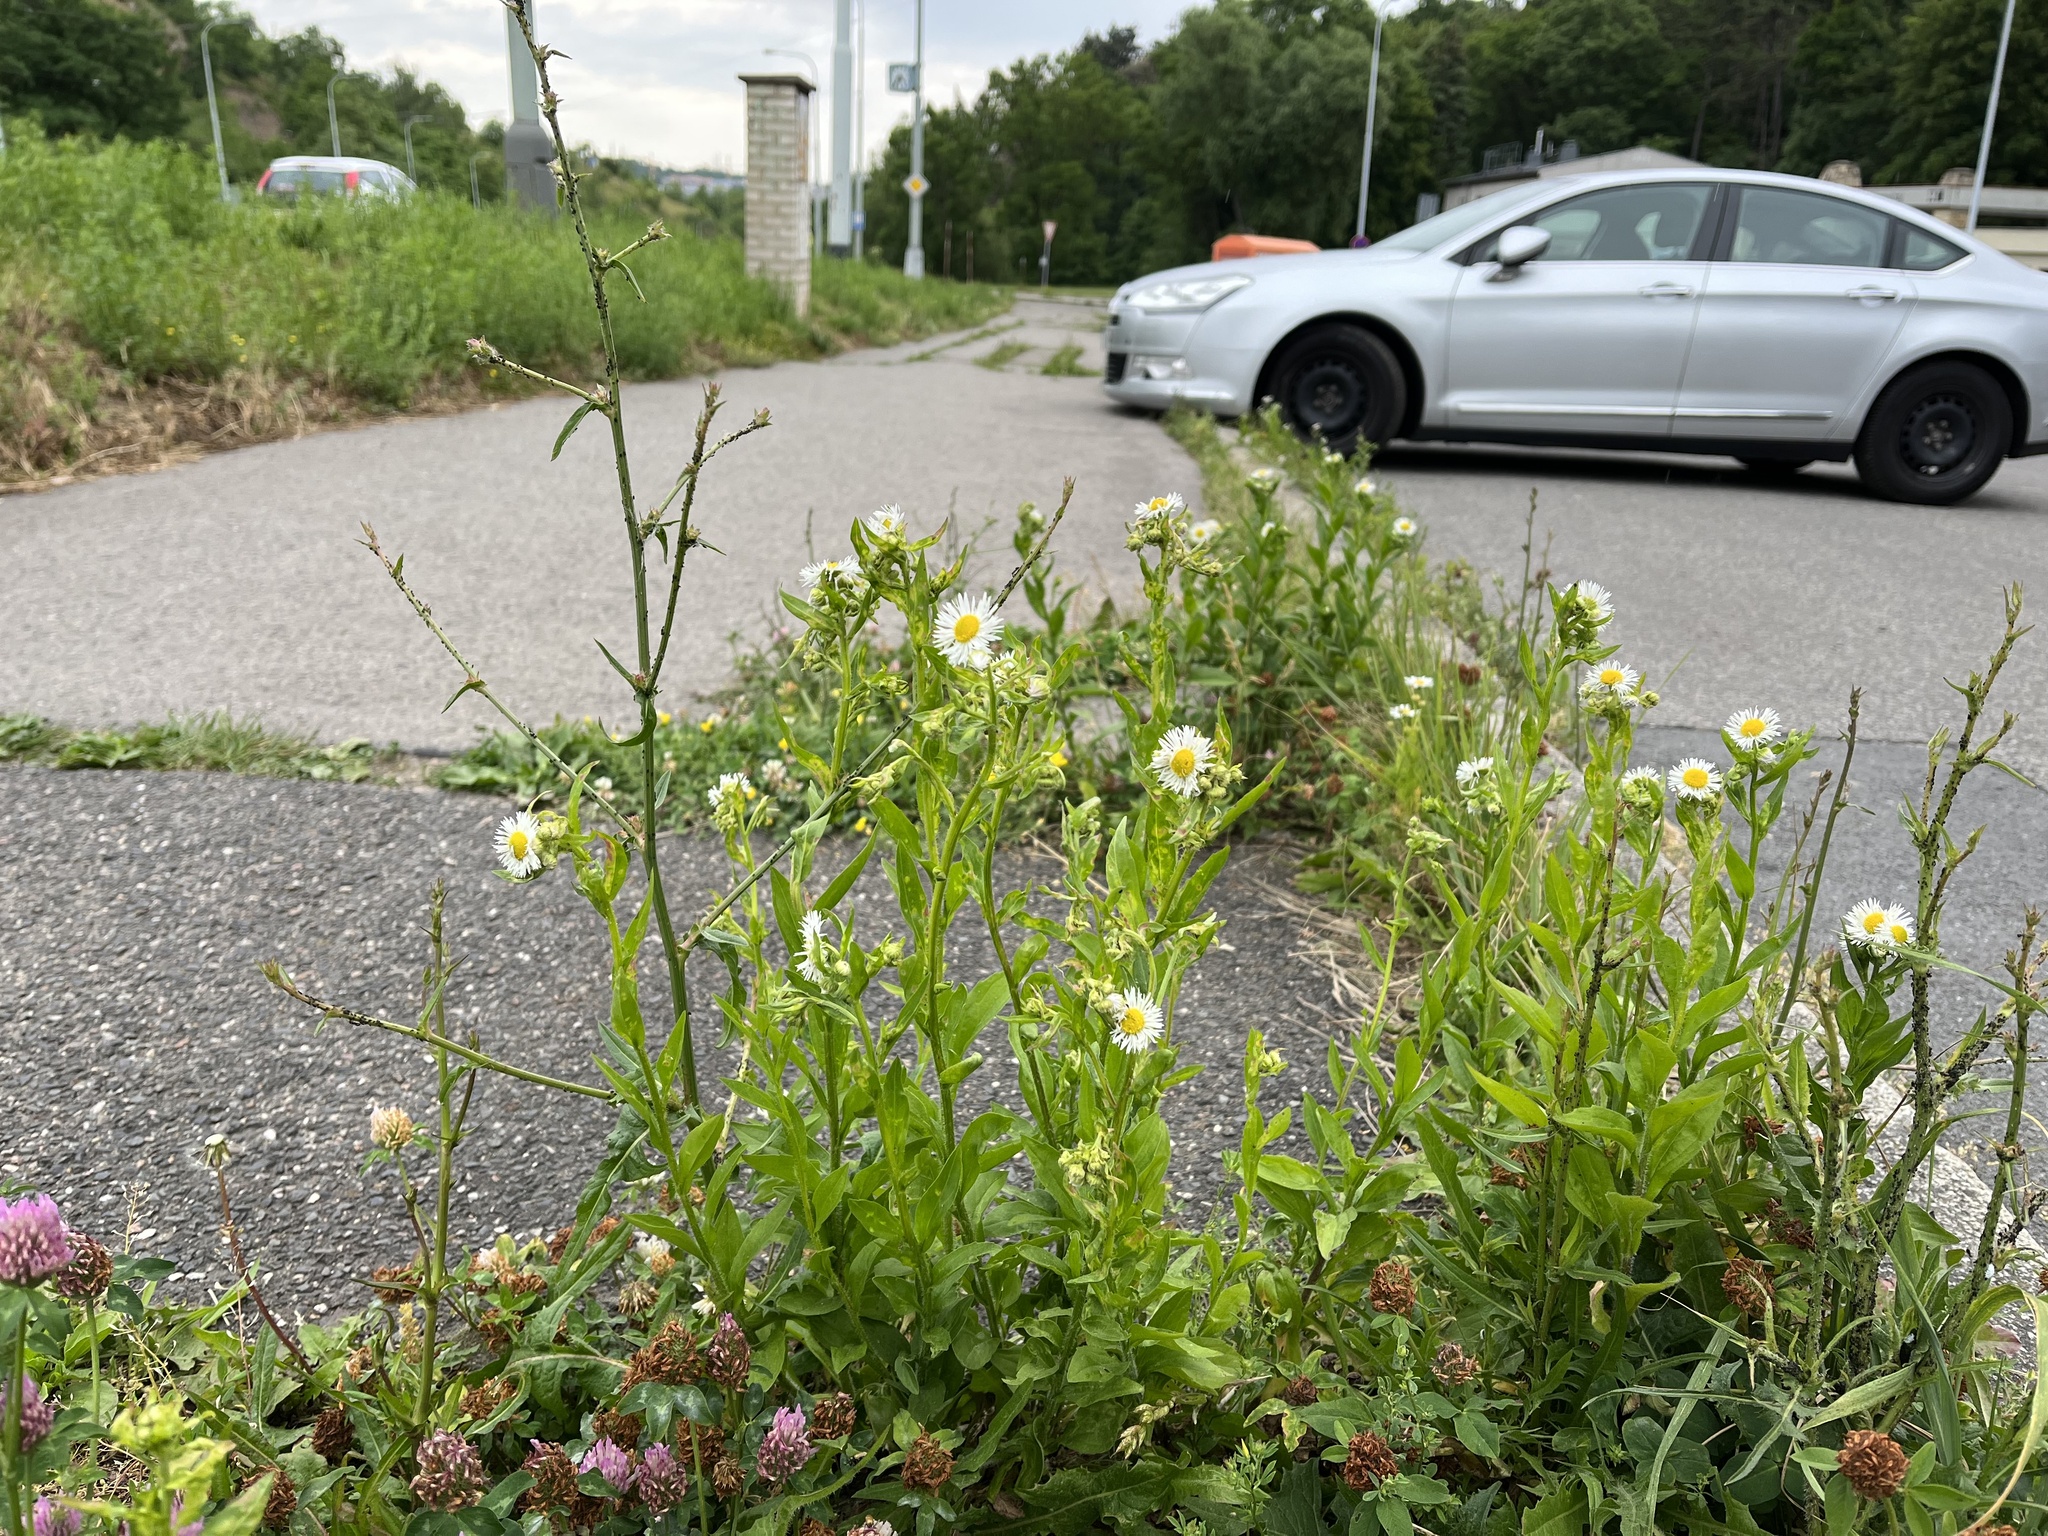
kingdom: Plantae
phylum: Tracheophyta
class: Magnoliopsida
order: Asterales
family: Asteraceae
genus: Erigeron
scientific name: Erigeron annuus
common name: Tall fleabane
